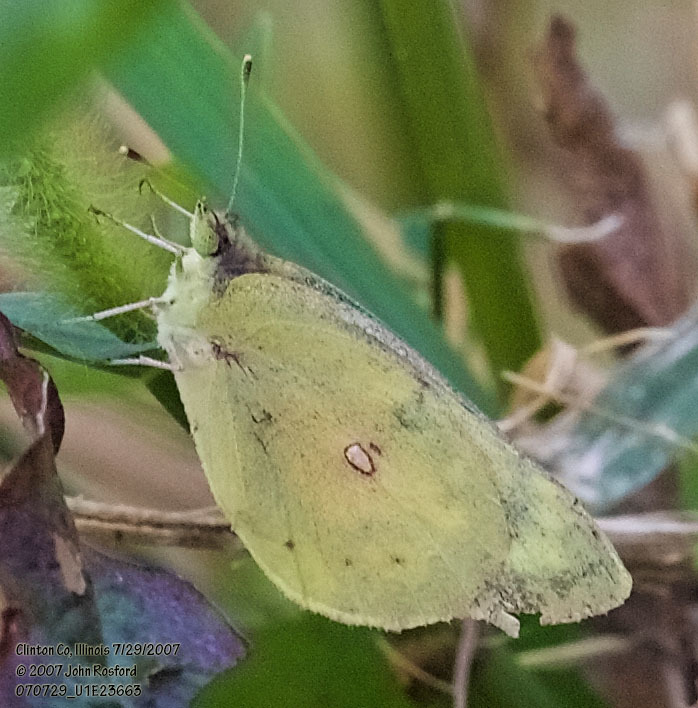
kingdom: Animalia
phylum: Arthropoda
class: Insecta
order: Lepidoptera
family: Pieridae
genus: Colias
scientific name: Colias eurytheme
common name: Alfalfa butterfly
